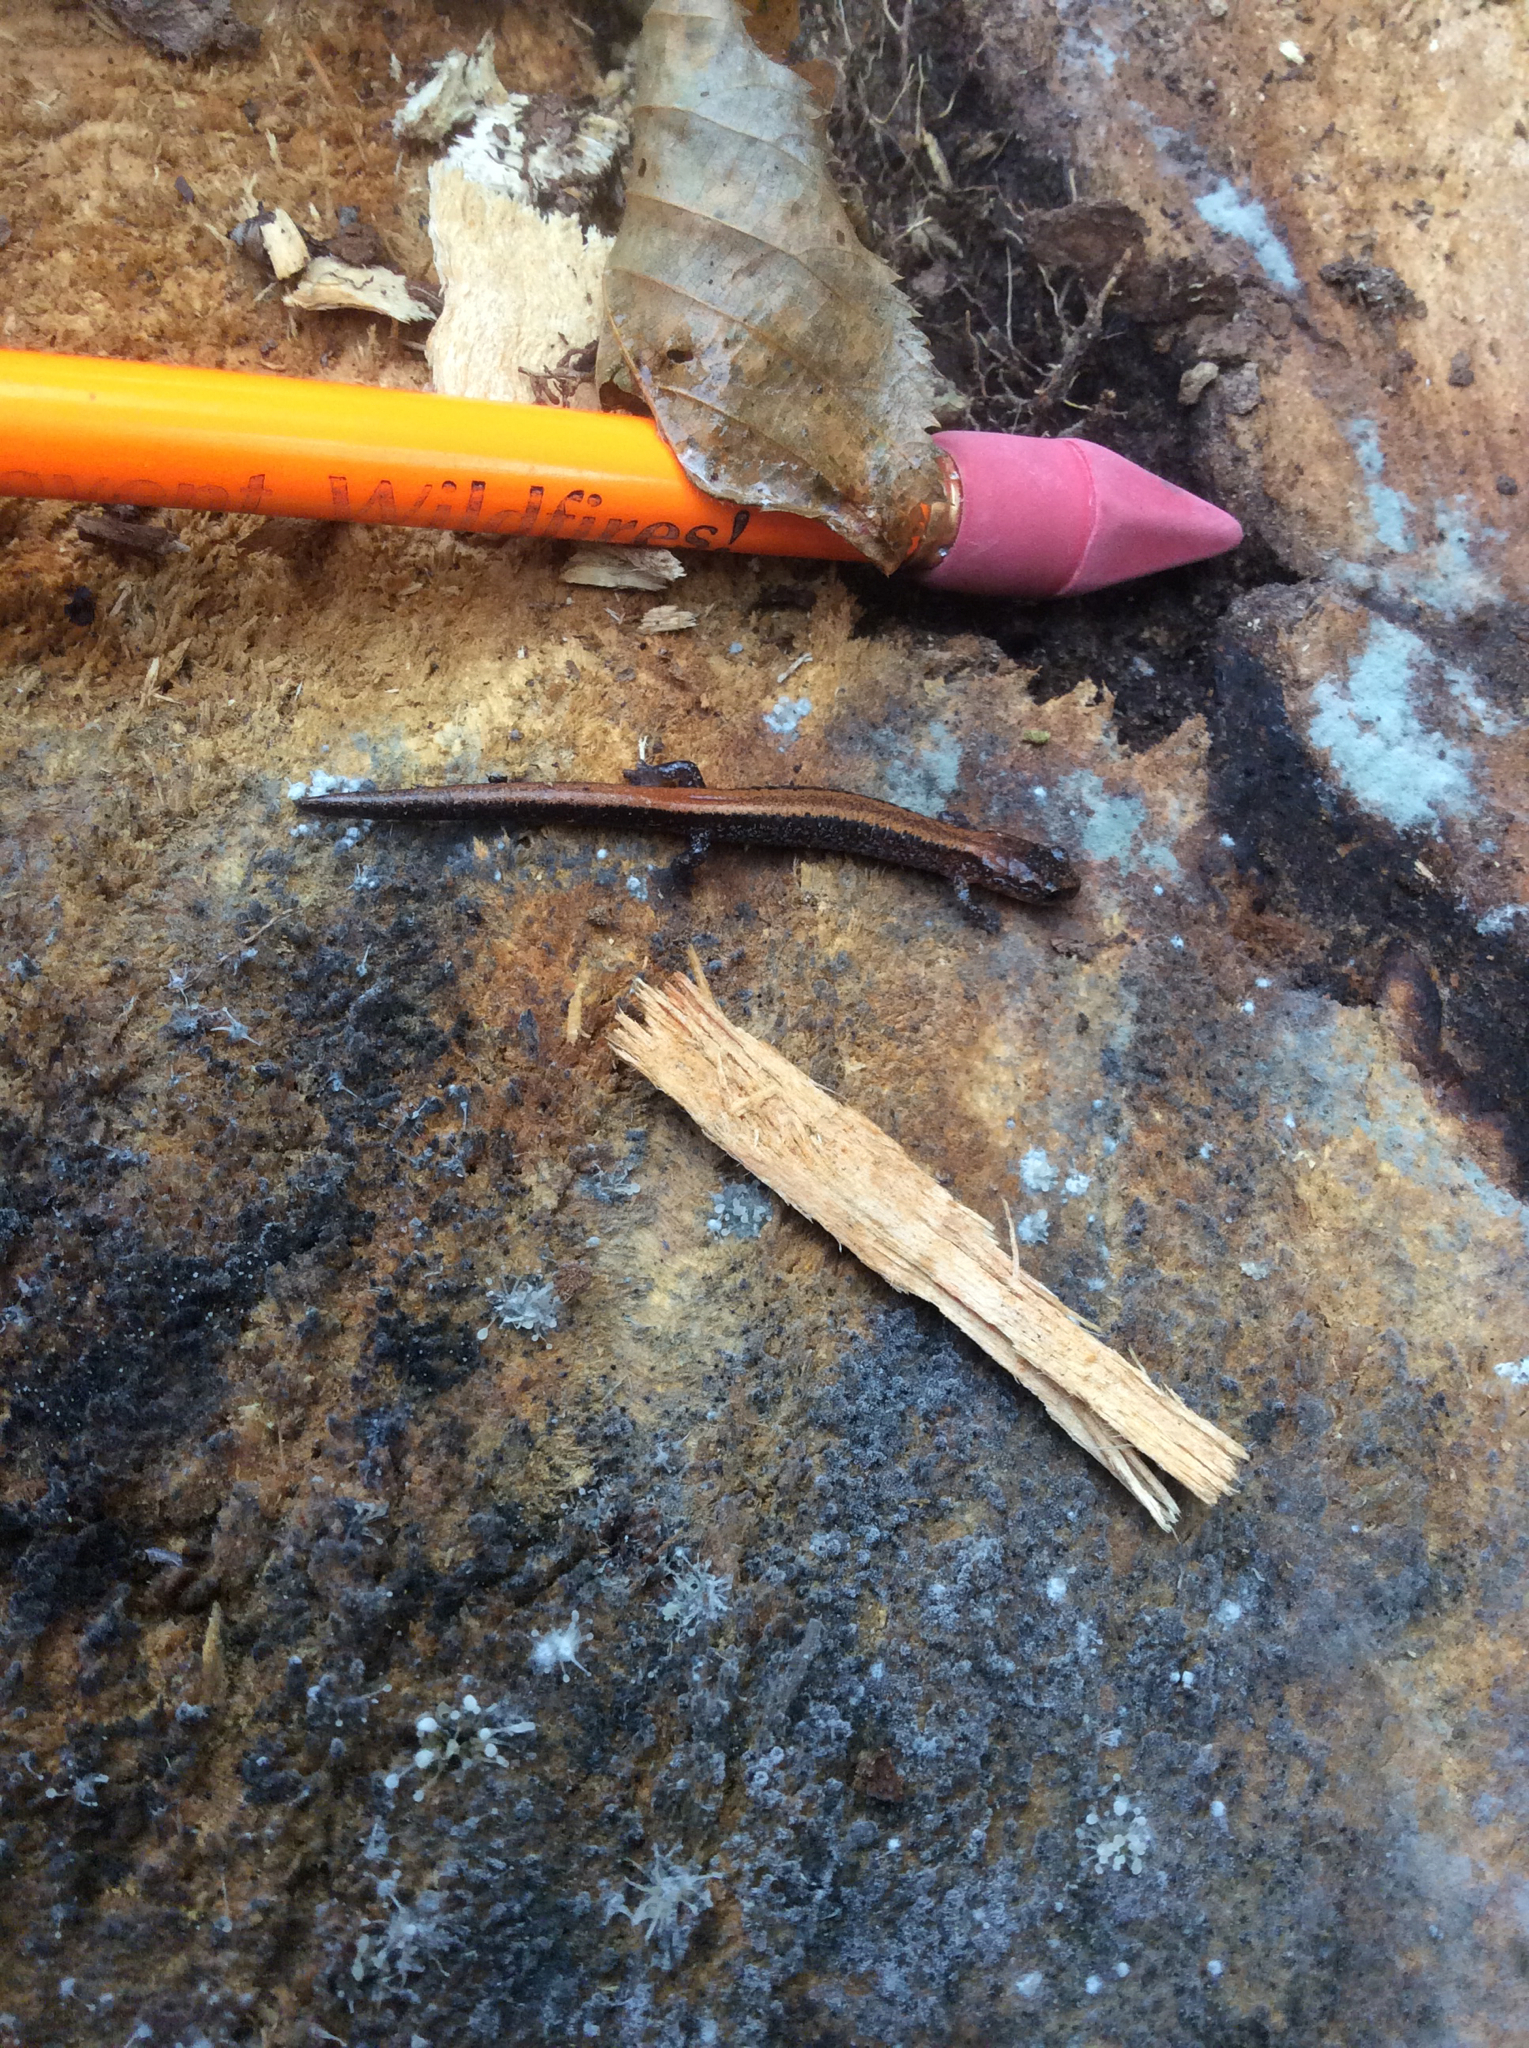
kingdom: Animalia
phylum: Chordata
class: Amphibia
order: Caudata
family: Plethodontidae
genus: Plethodon
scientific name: Plethodon cinereus
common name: Redback salamander
